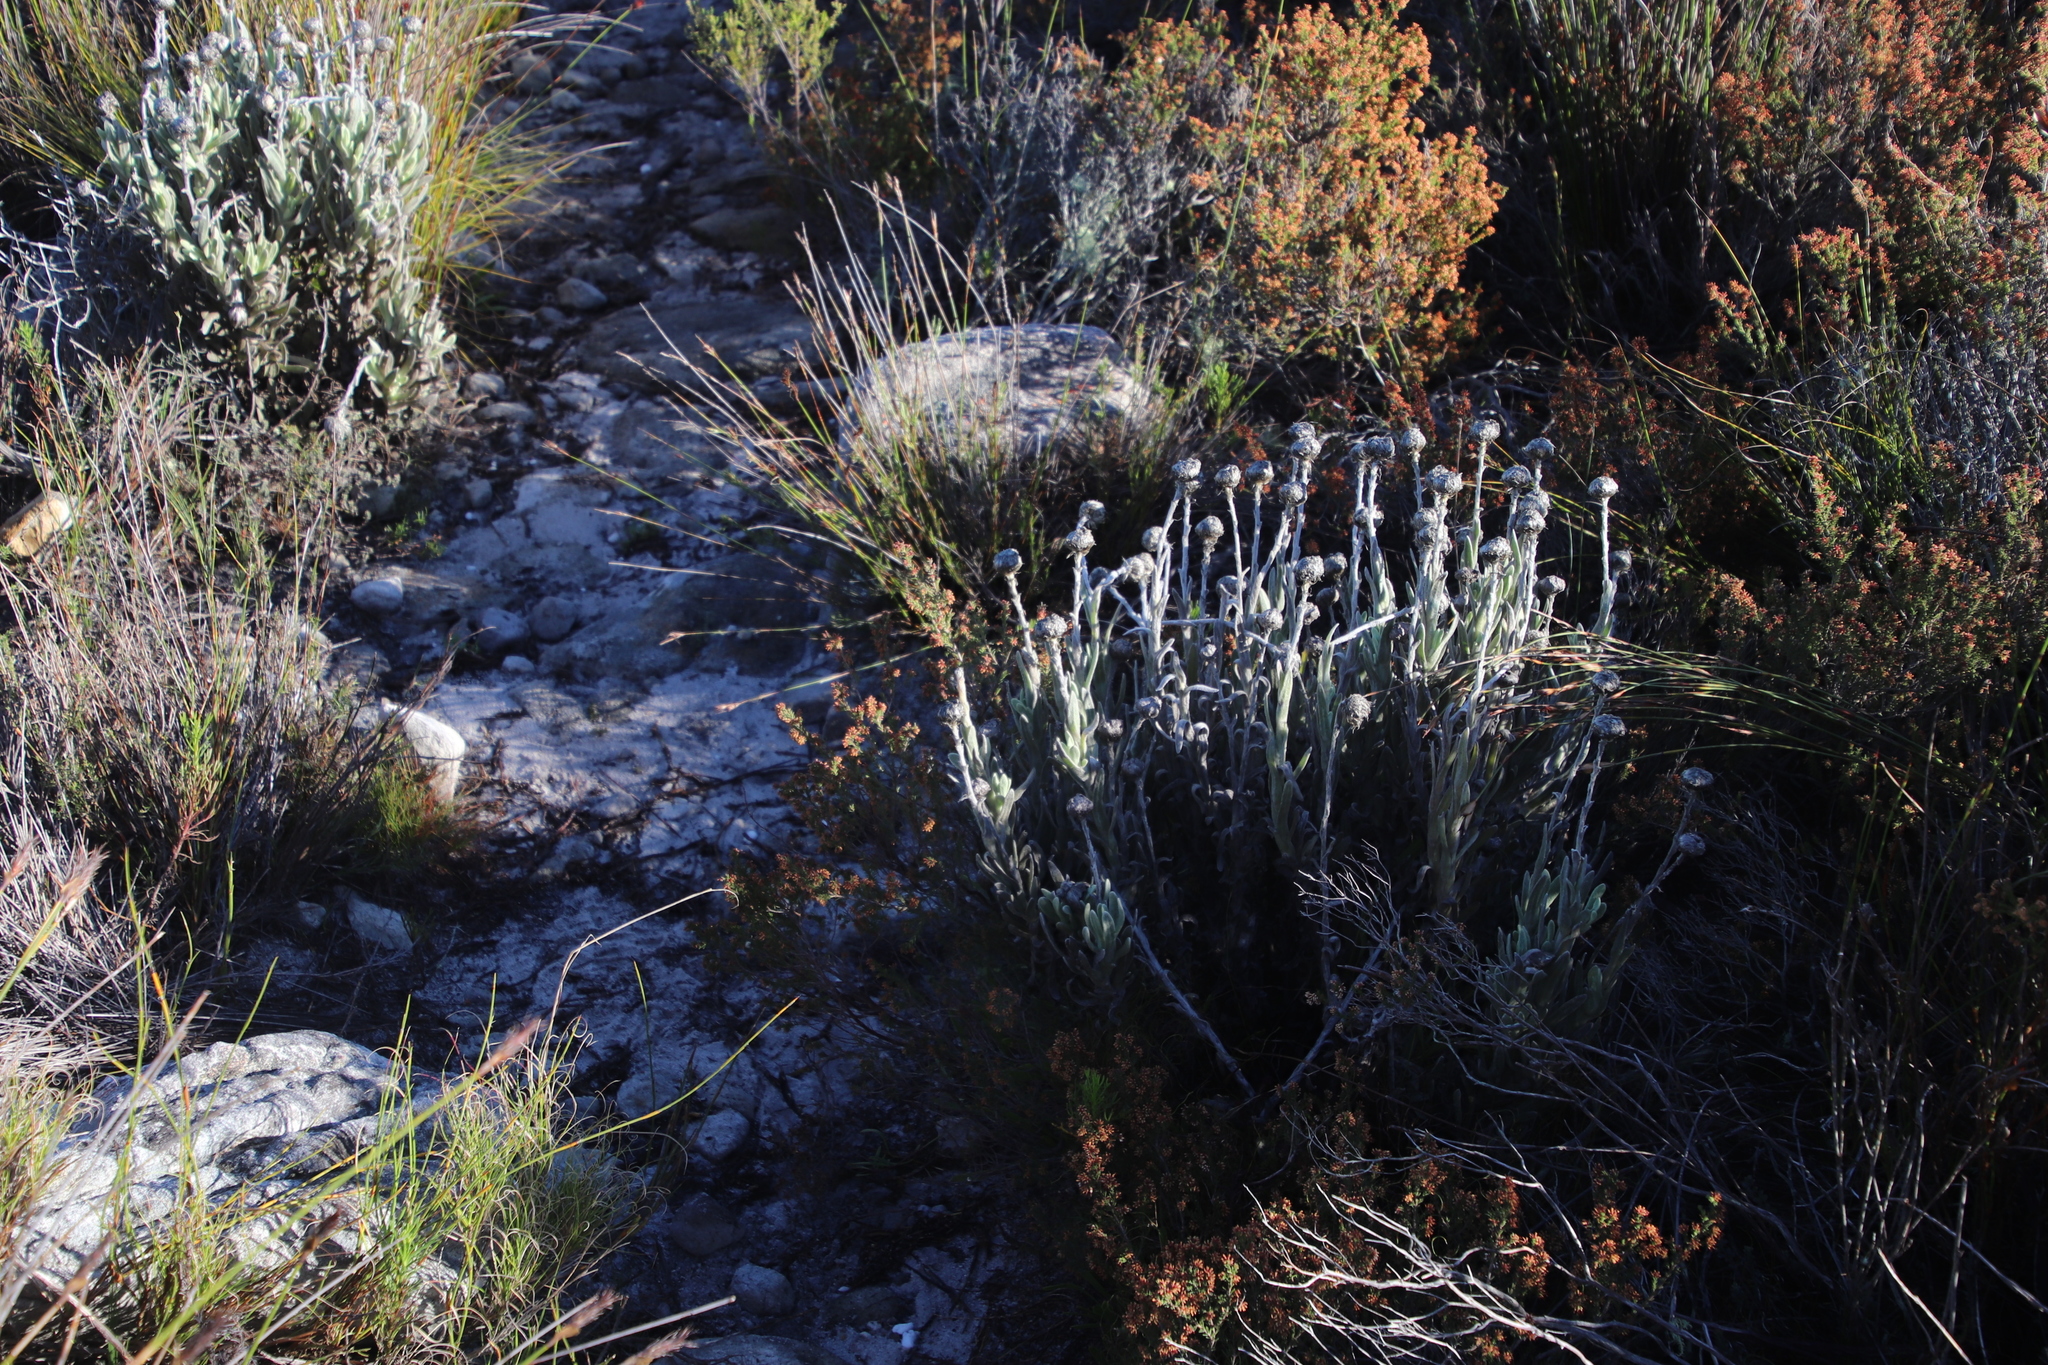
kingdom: Plantae
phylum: Tracheophyta
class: Magnoliopsida
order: Asterales
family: Asteraceae
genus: Syncarpha
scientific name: Syncarpha vestita
